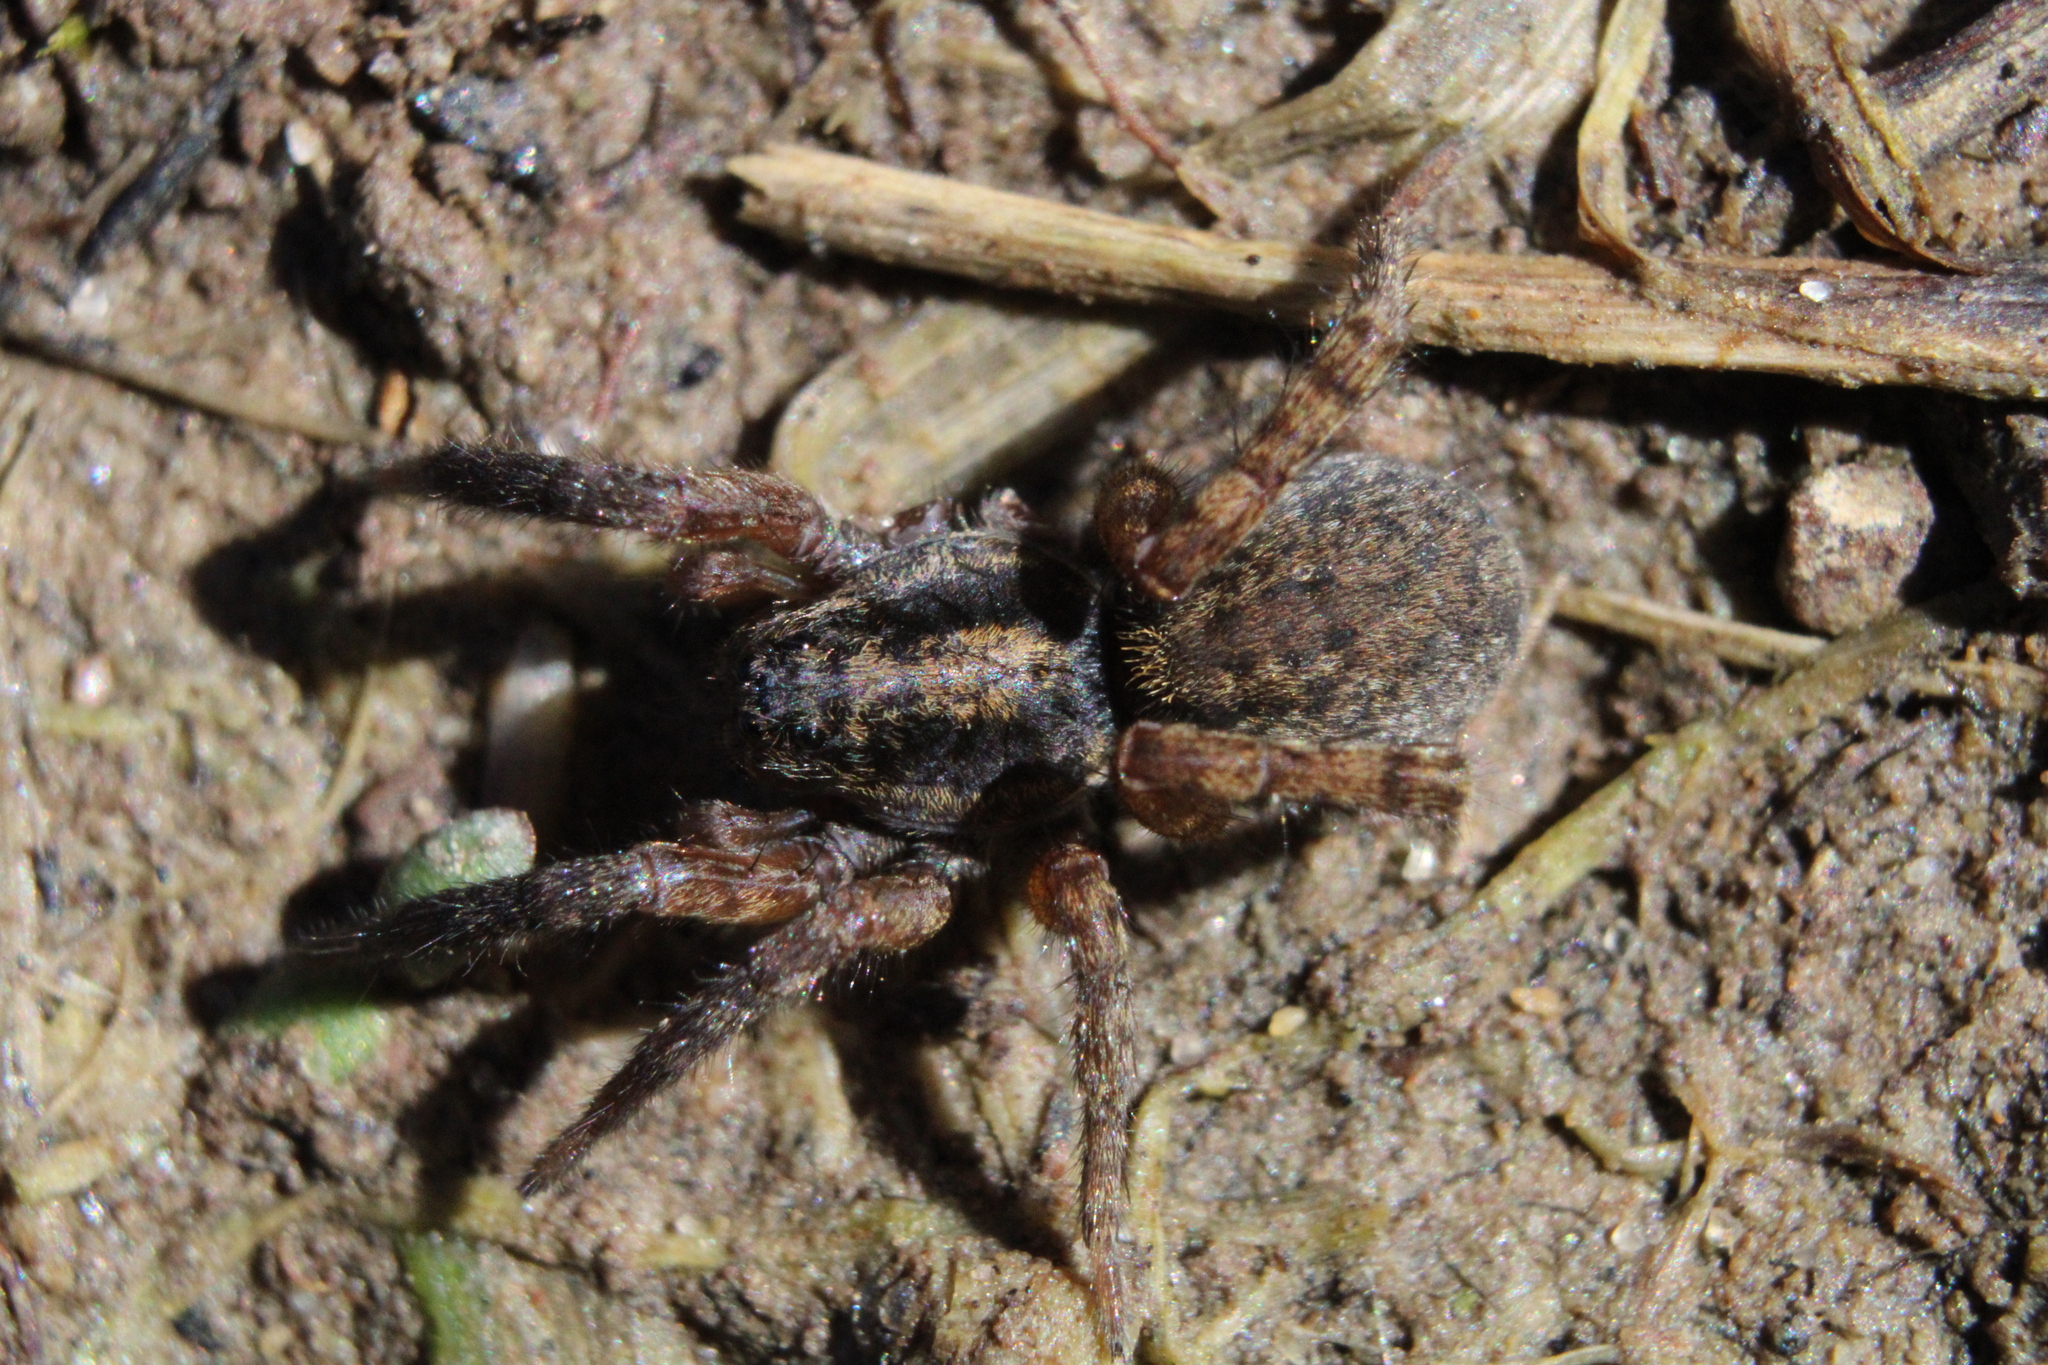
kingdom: Animalia
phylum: Arthropoda
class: Arachnida
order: Araneae
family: Lycosidae
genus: Trochosa
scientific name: Trochosa sepulchralis
